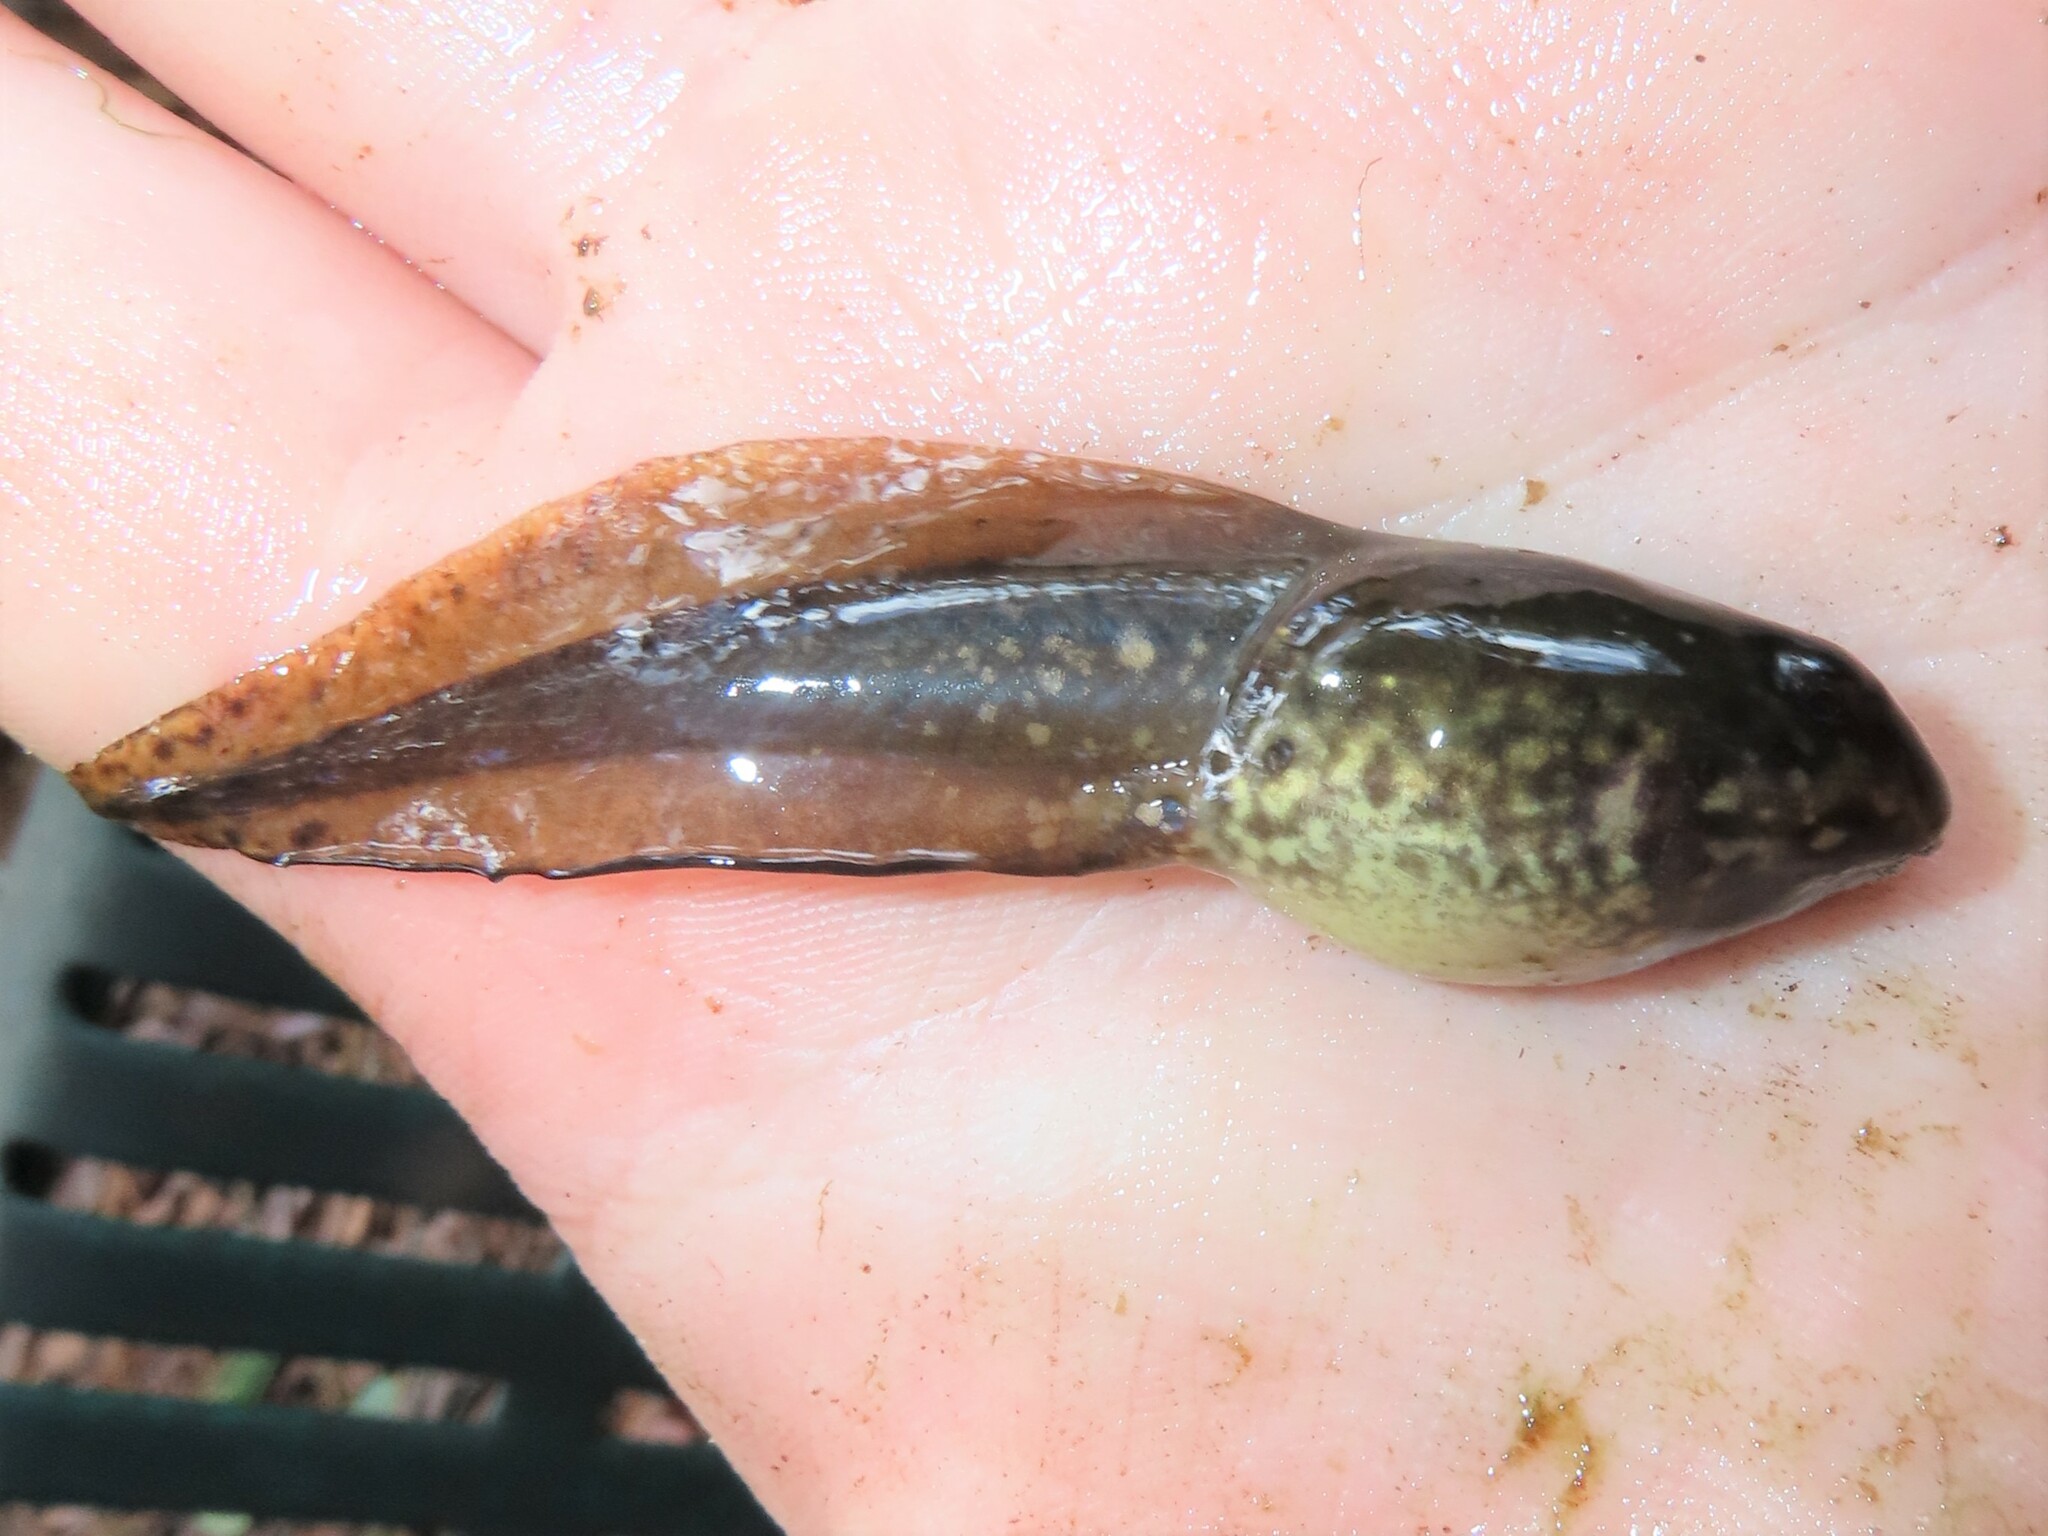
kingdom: Animalia
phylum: Chordata
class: Amphibia
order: Anura
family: Ranidae
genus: Lithobates
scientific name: Lithobates grylio
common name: Pig frog
